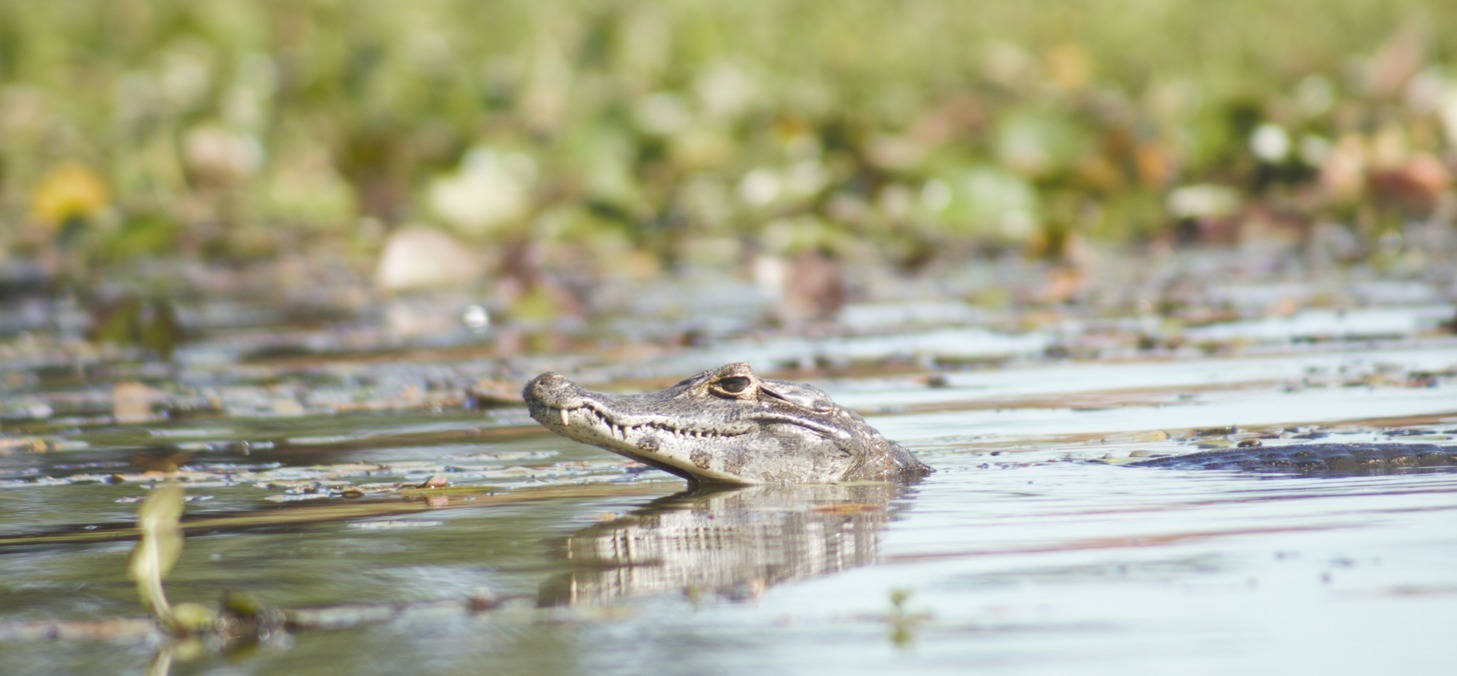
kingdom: Animalia
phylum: Chordata
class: Crocodylia
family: Alligatoridae
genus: Caiman
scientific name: Caiman yacare
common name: Yacare caiman
